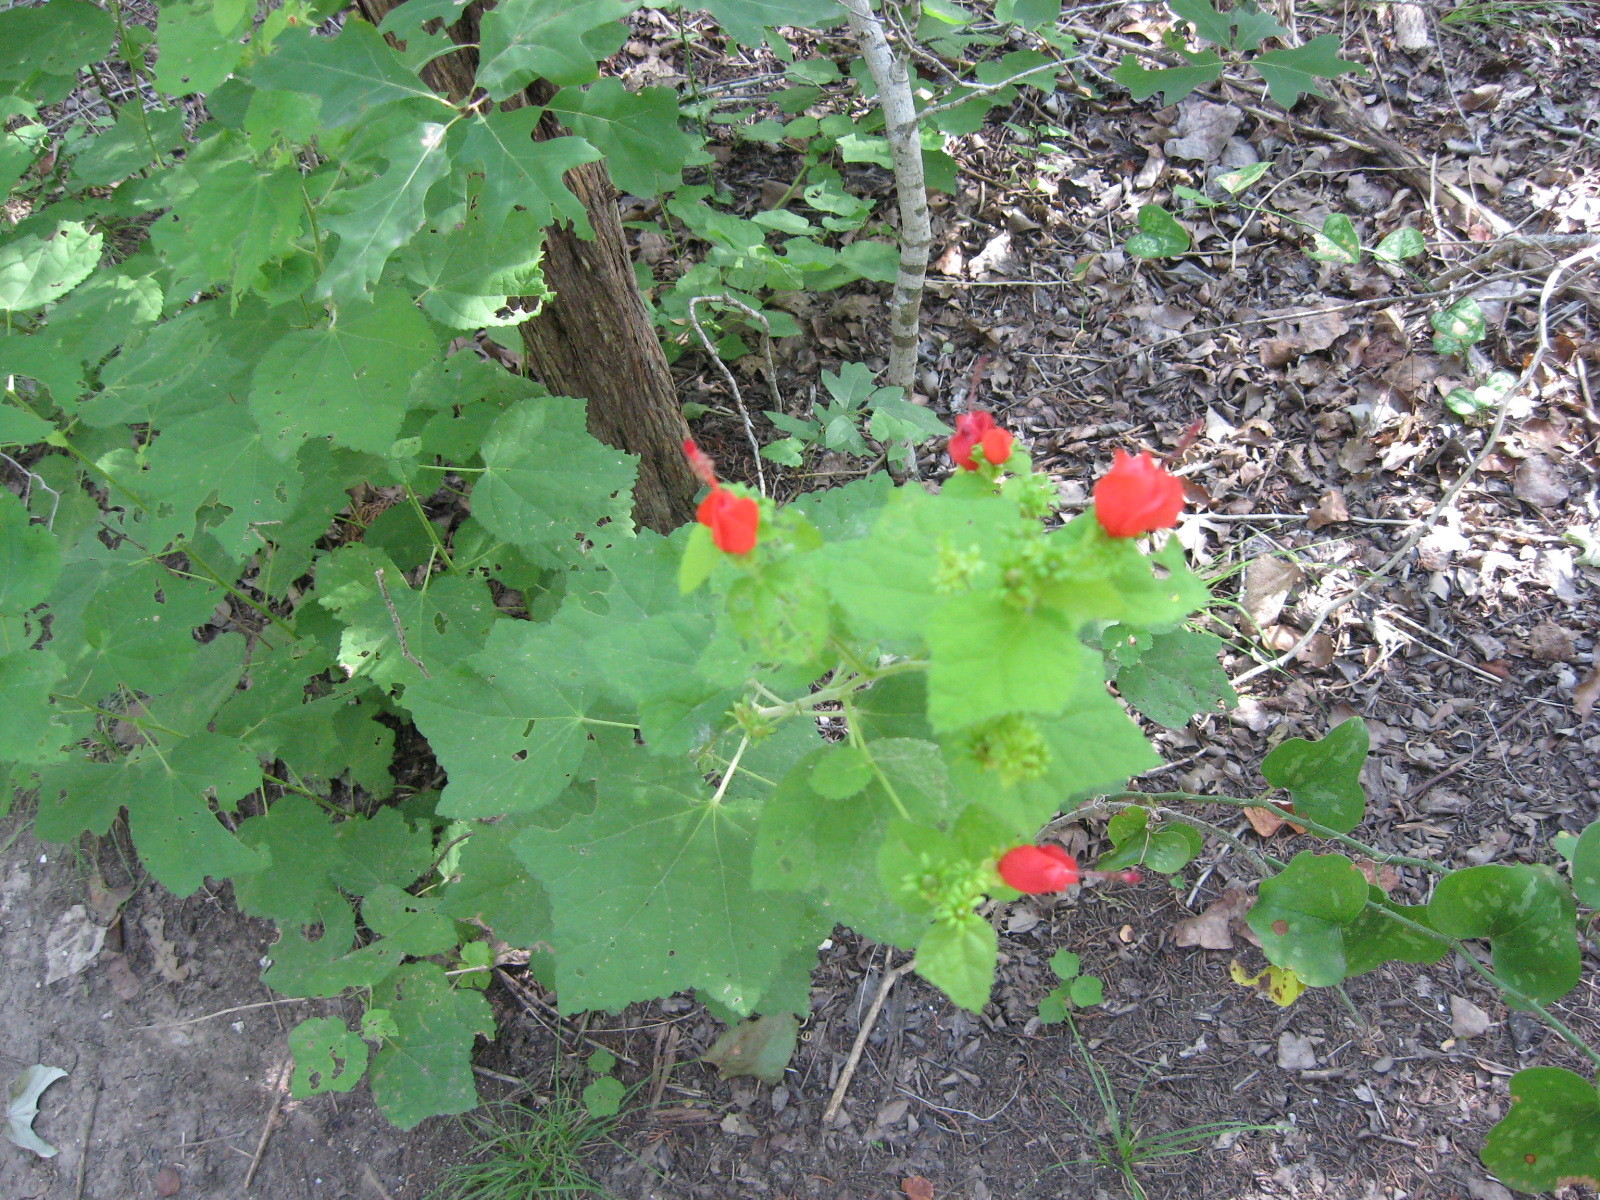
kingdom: Plantae
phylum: Tracheophyta
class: Magnoliopsida
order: Malvales
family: Malvaceae
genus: Malvaviscus
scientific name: Malvaviscus arboreus
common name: Wax mallow
